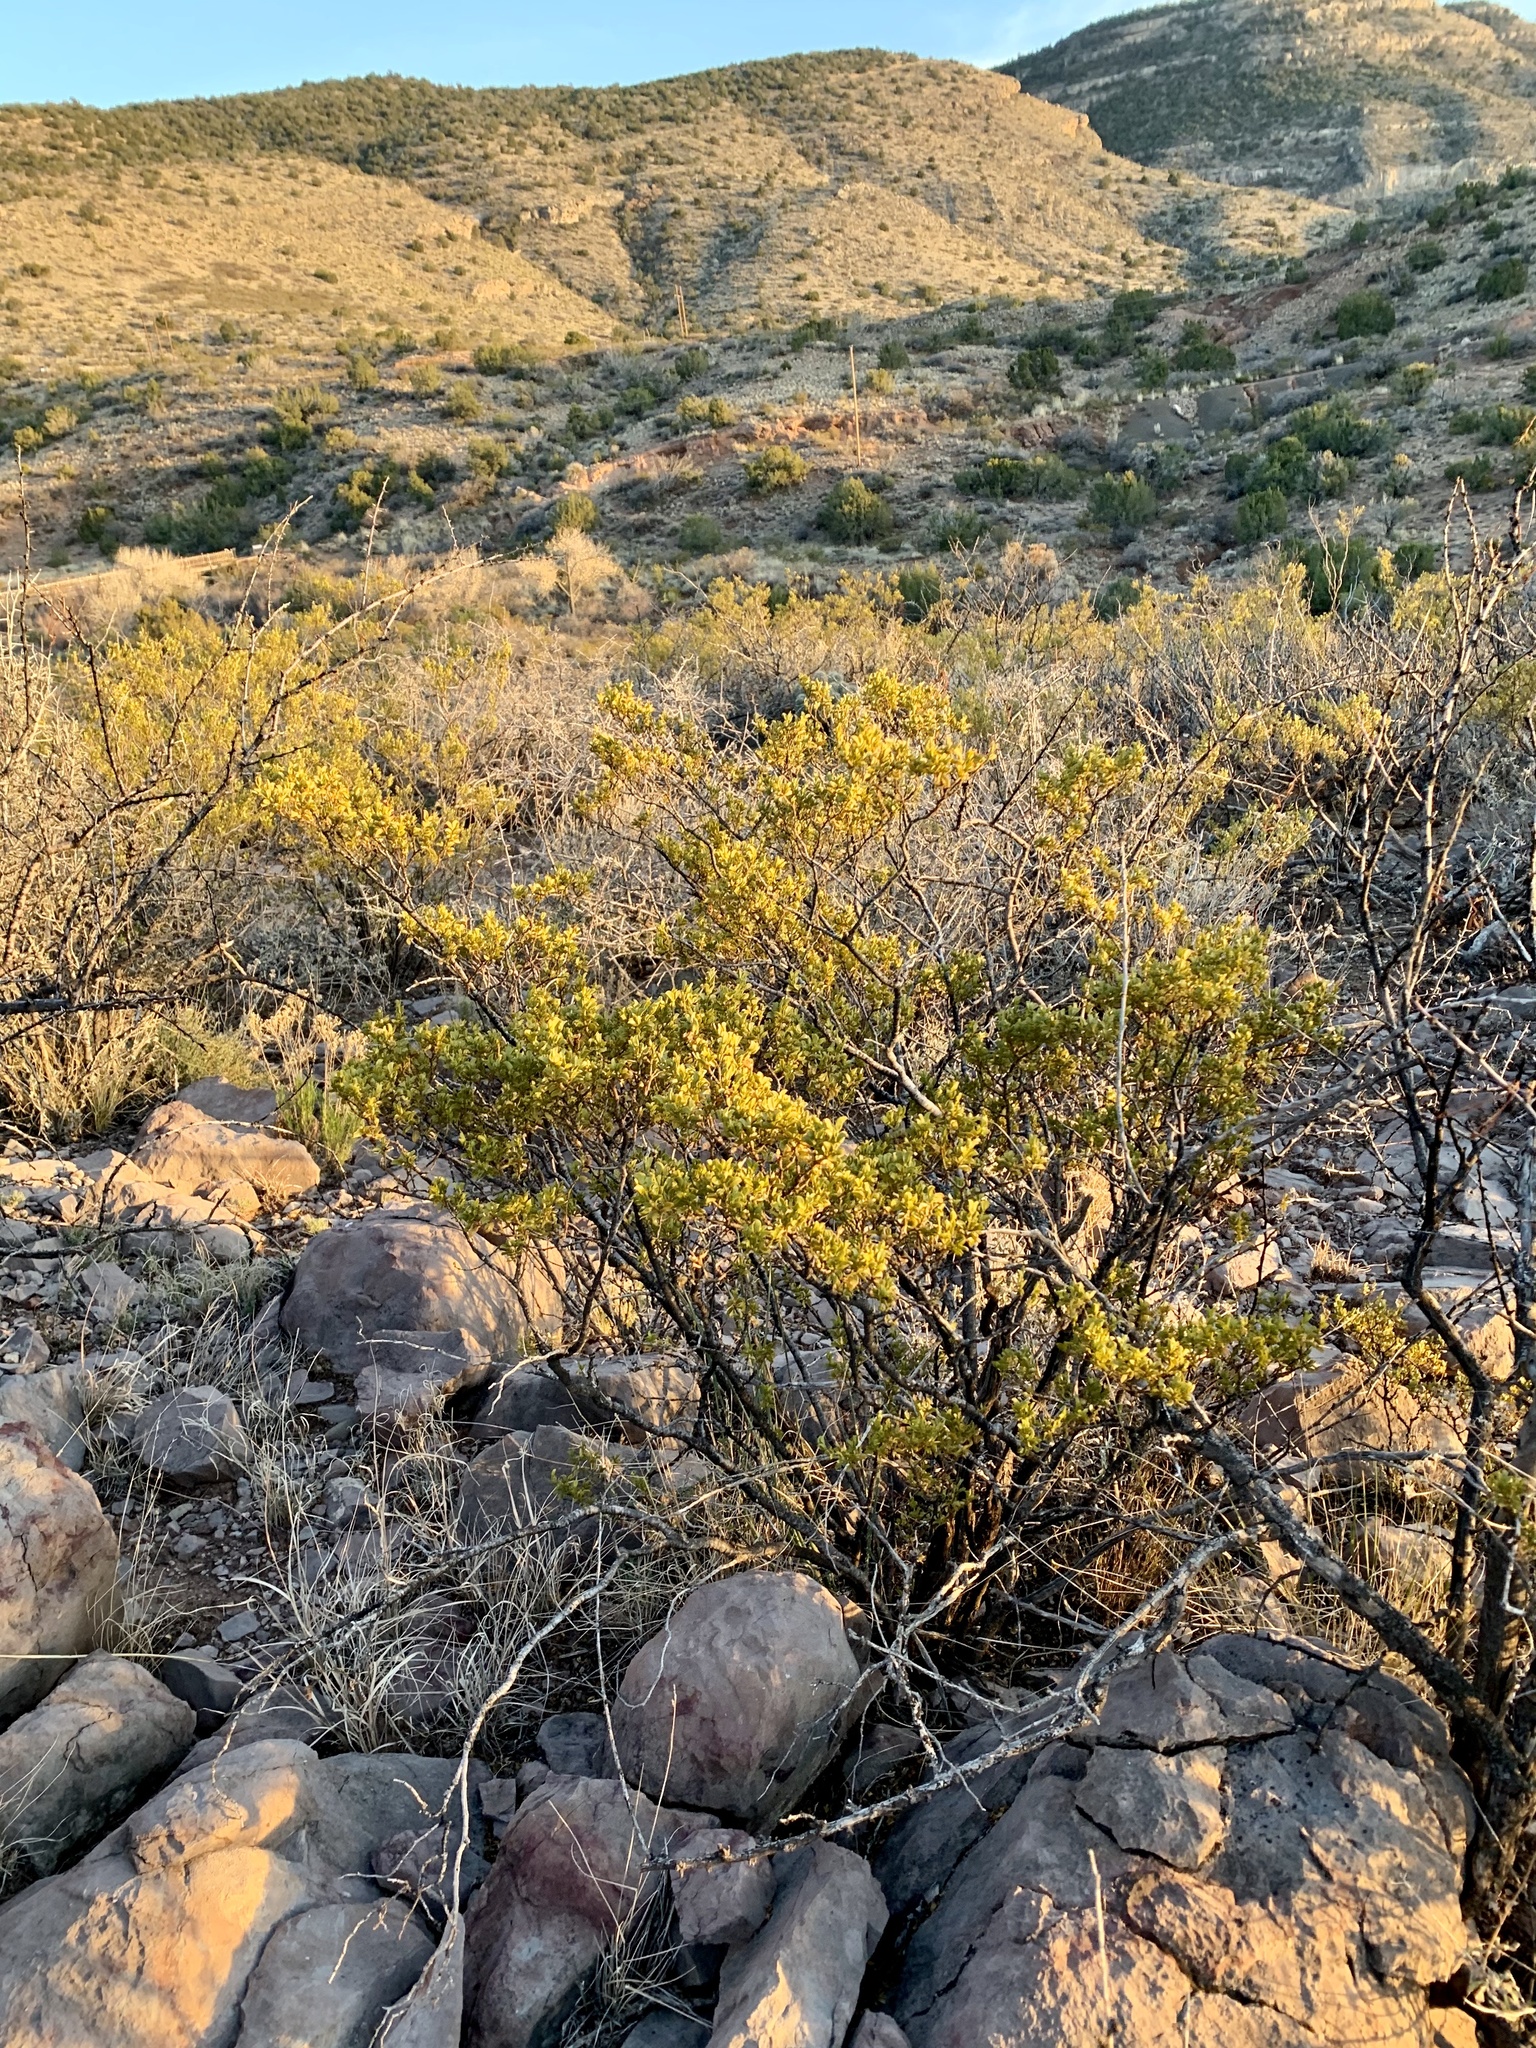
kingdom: Plantae
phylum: Tracheophyta
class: Magnoliopsida
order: Zygophyllales
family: Zygophyllaceae
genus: Larrea
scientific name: Larrea tridentata
